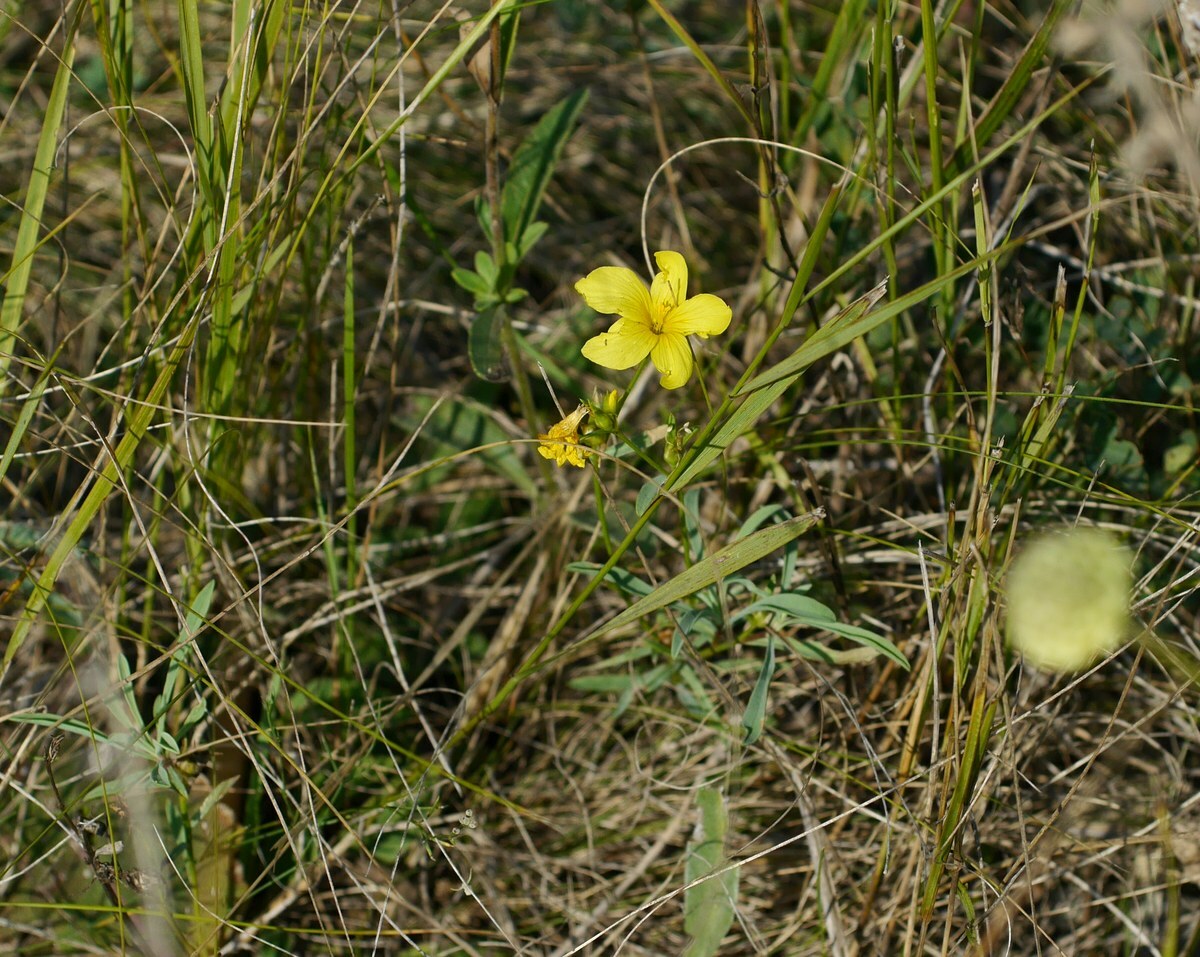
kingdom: Plantae
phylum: Tracheophyta
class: Magnoliopsida
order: Malpighiales
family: Linaceae
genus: Linum
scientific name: Linum flavum
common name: Yellow flax
